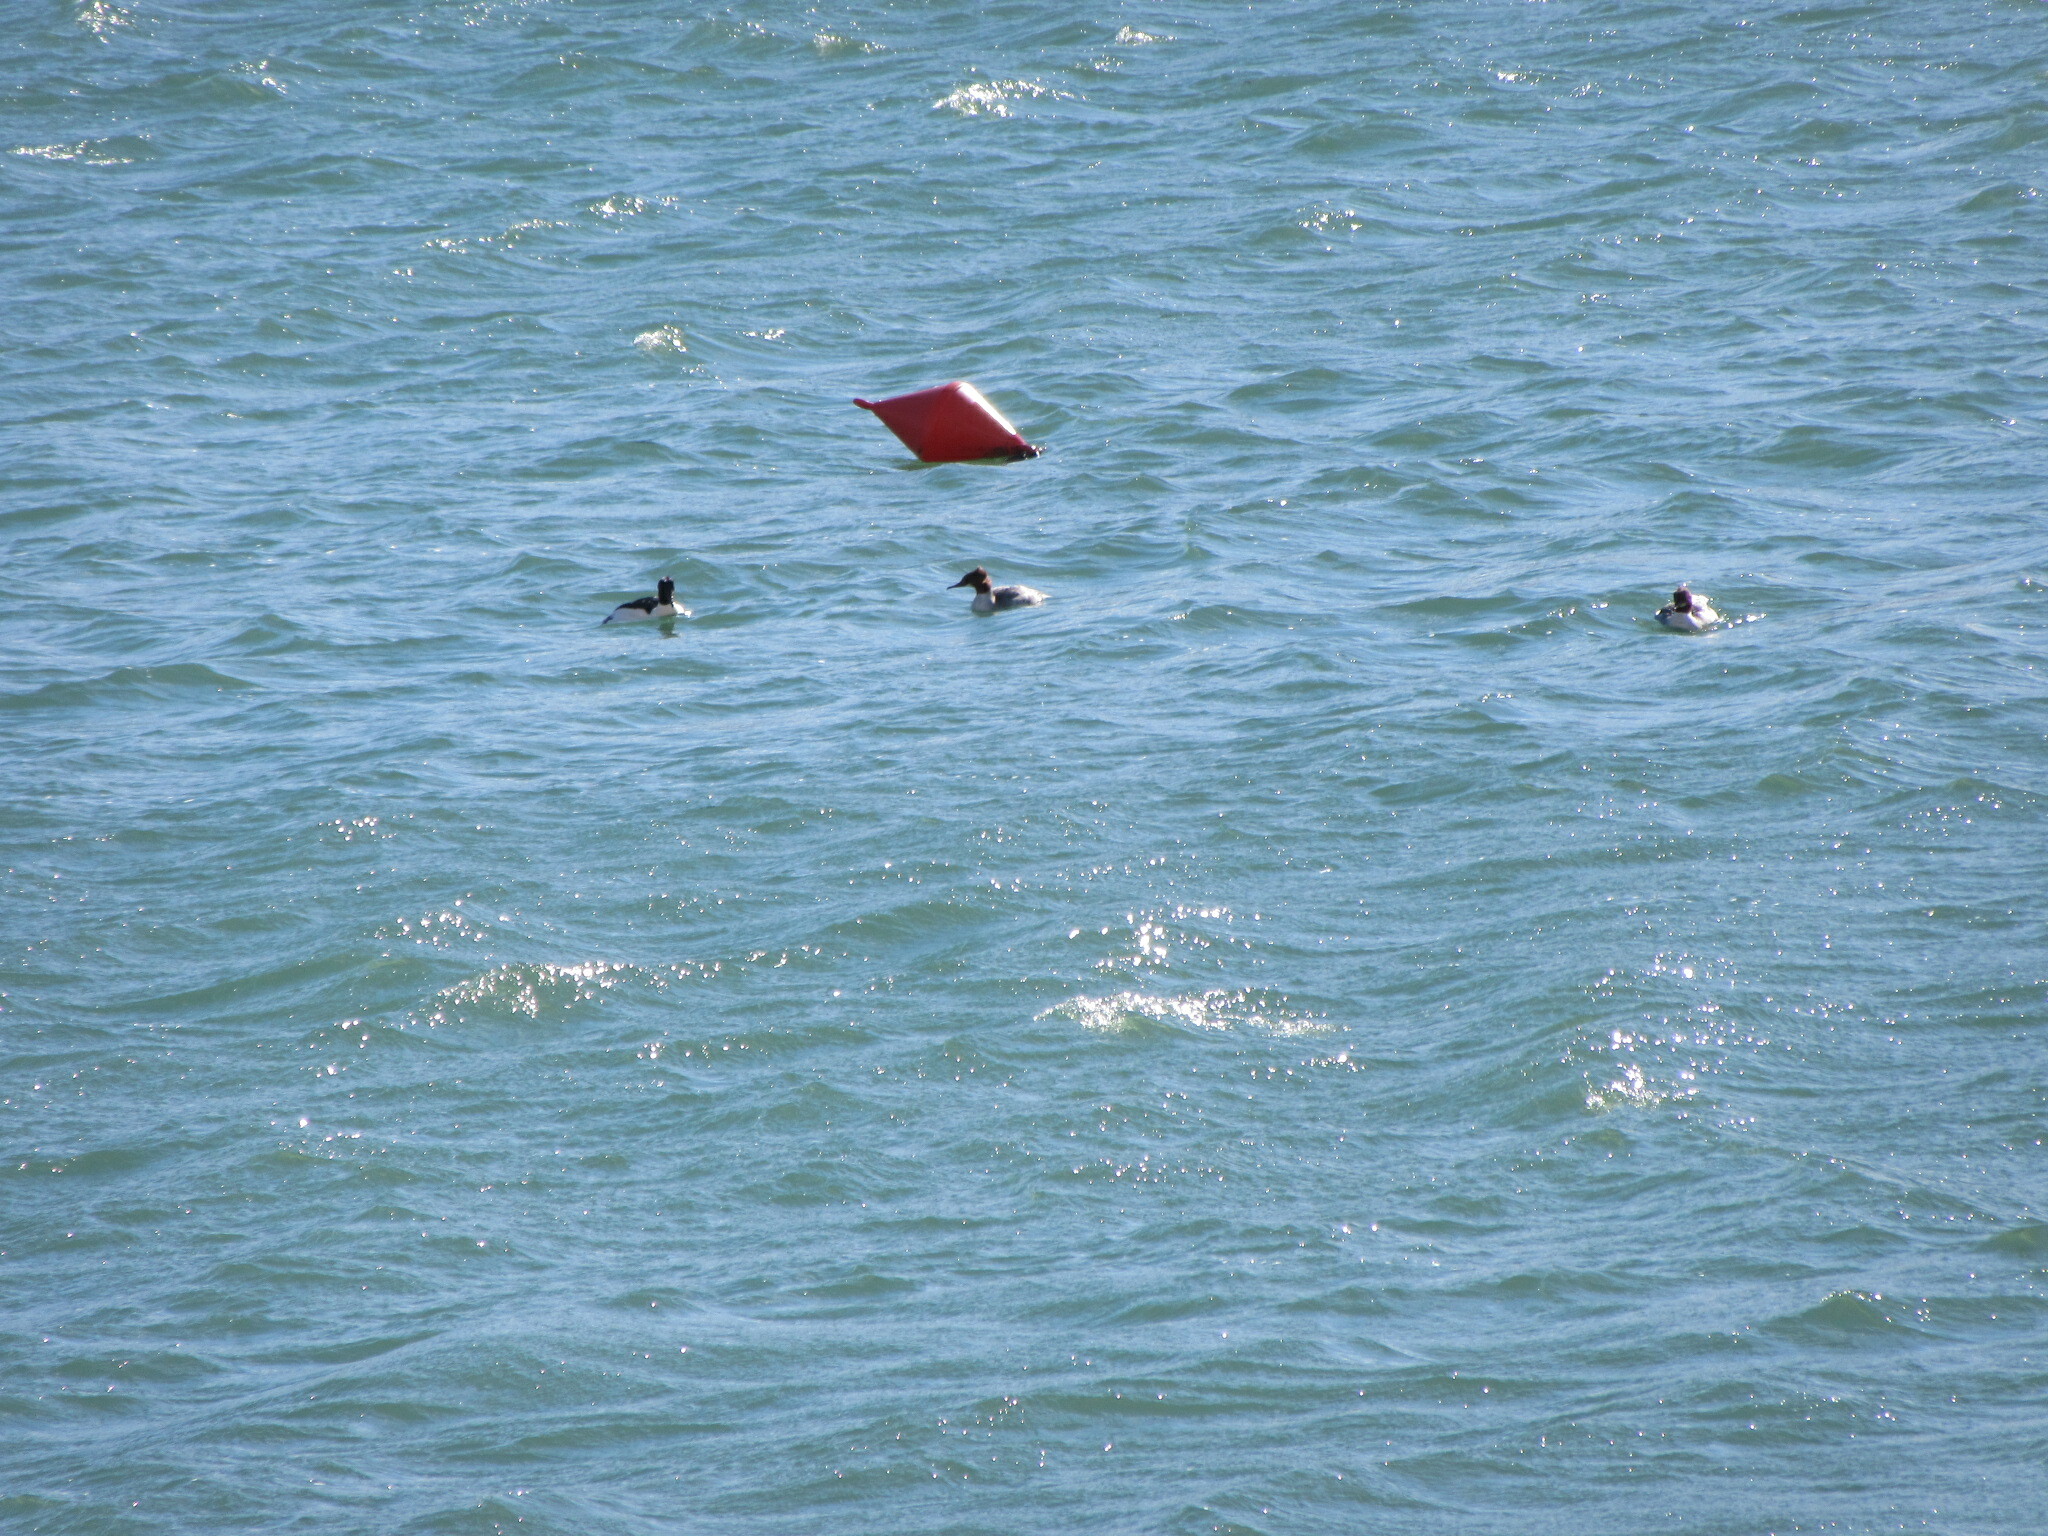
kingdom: Animalia
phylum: Chordata
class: Aves
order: Anseriformes
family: Anatidae
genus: Mergus
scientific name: Mergus merganser
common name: Common merganser
